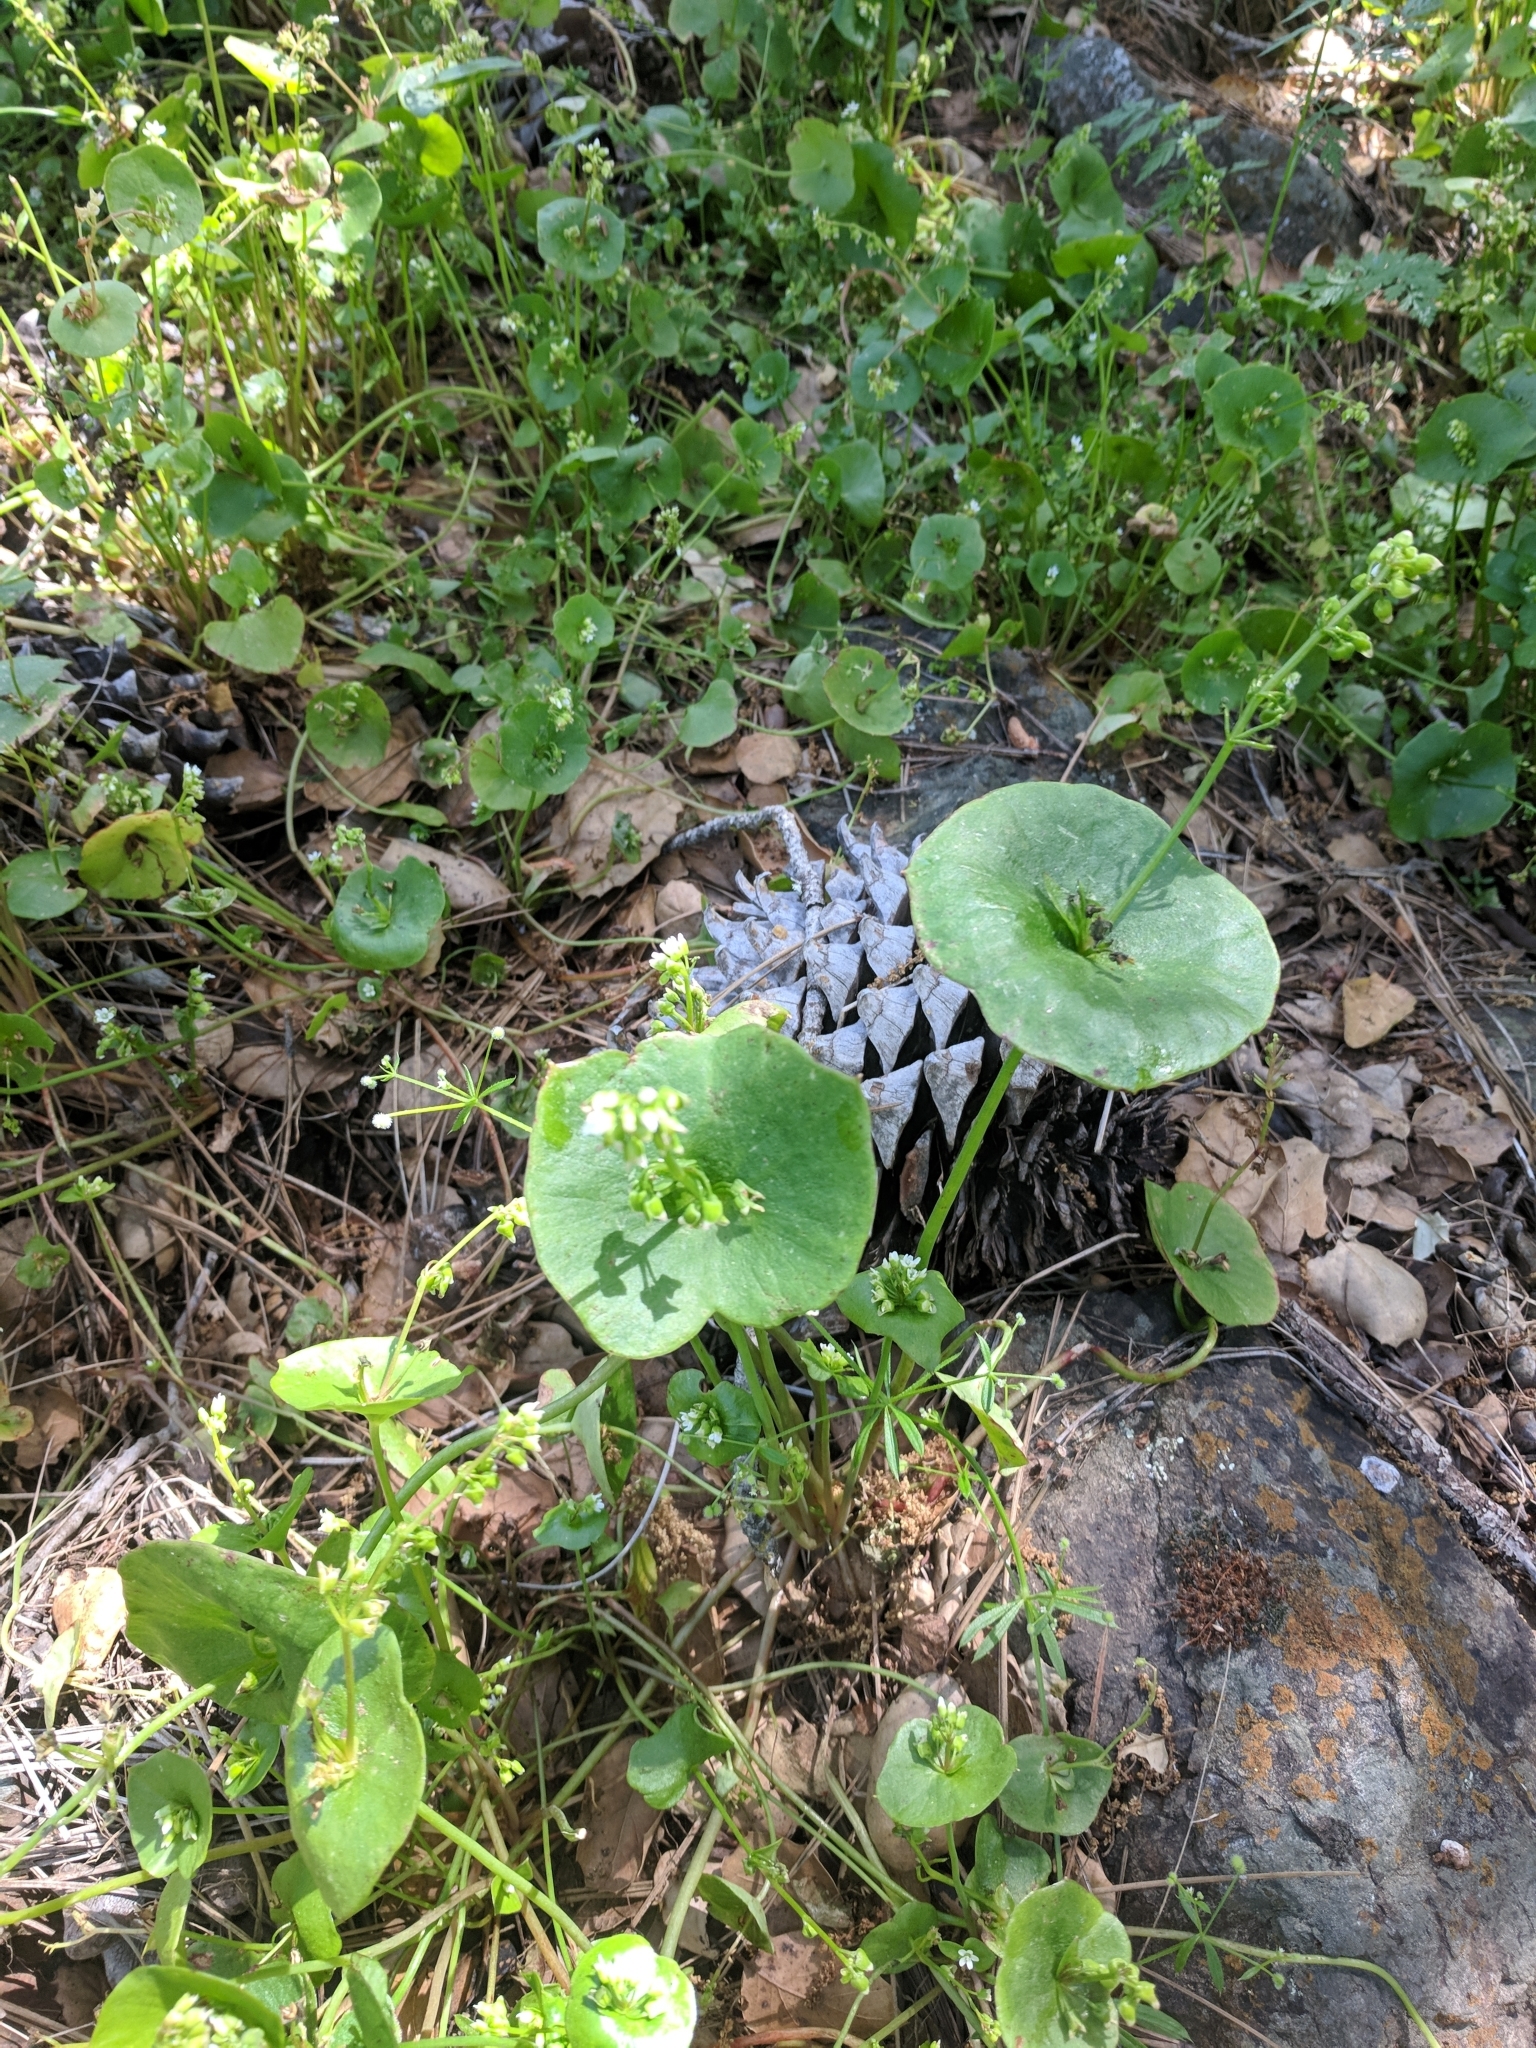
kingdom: Plantae
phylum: Tracheophyta
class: Magnoliopsida
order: Caryophyllales
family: Montiaceae
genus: Claytonia
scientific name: Claytonia perfoliata
